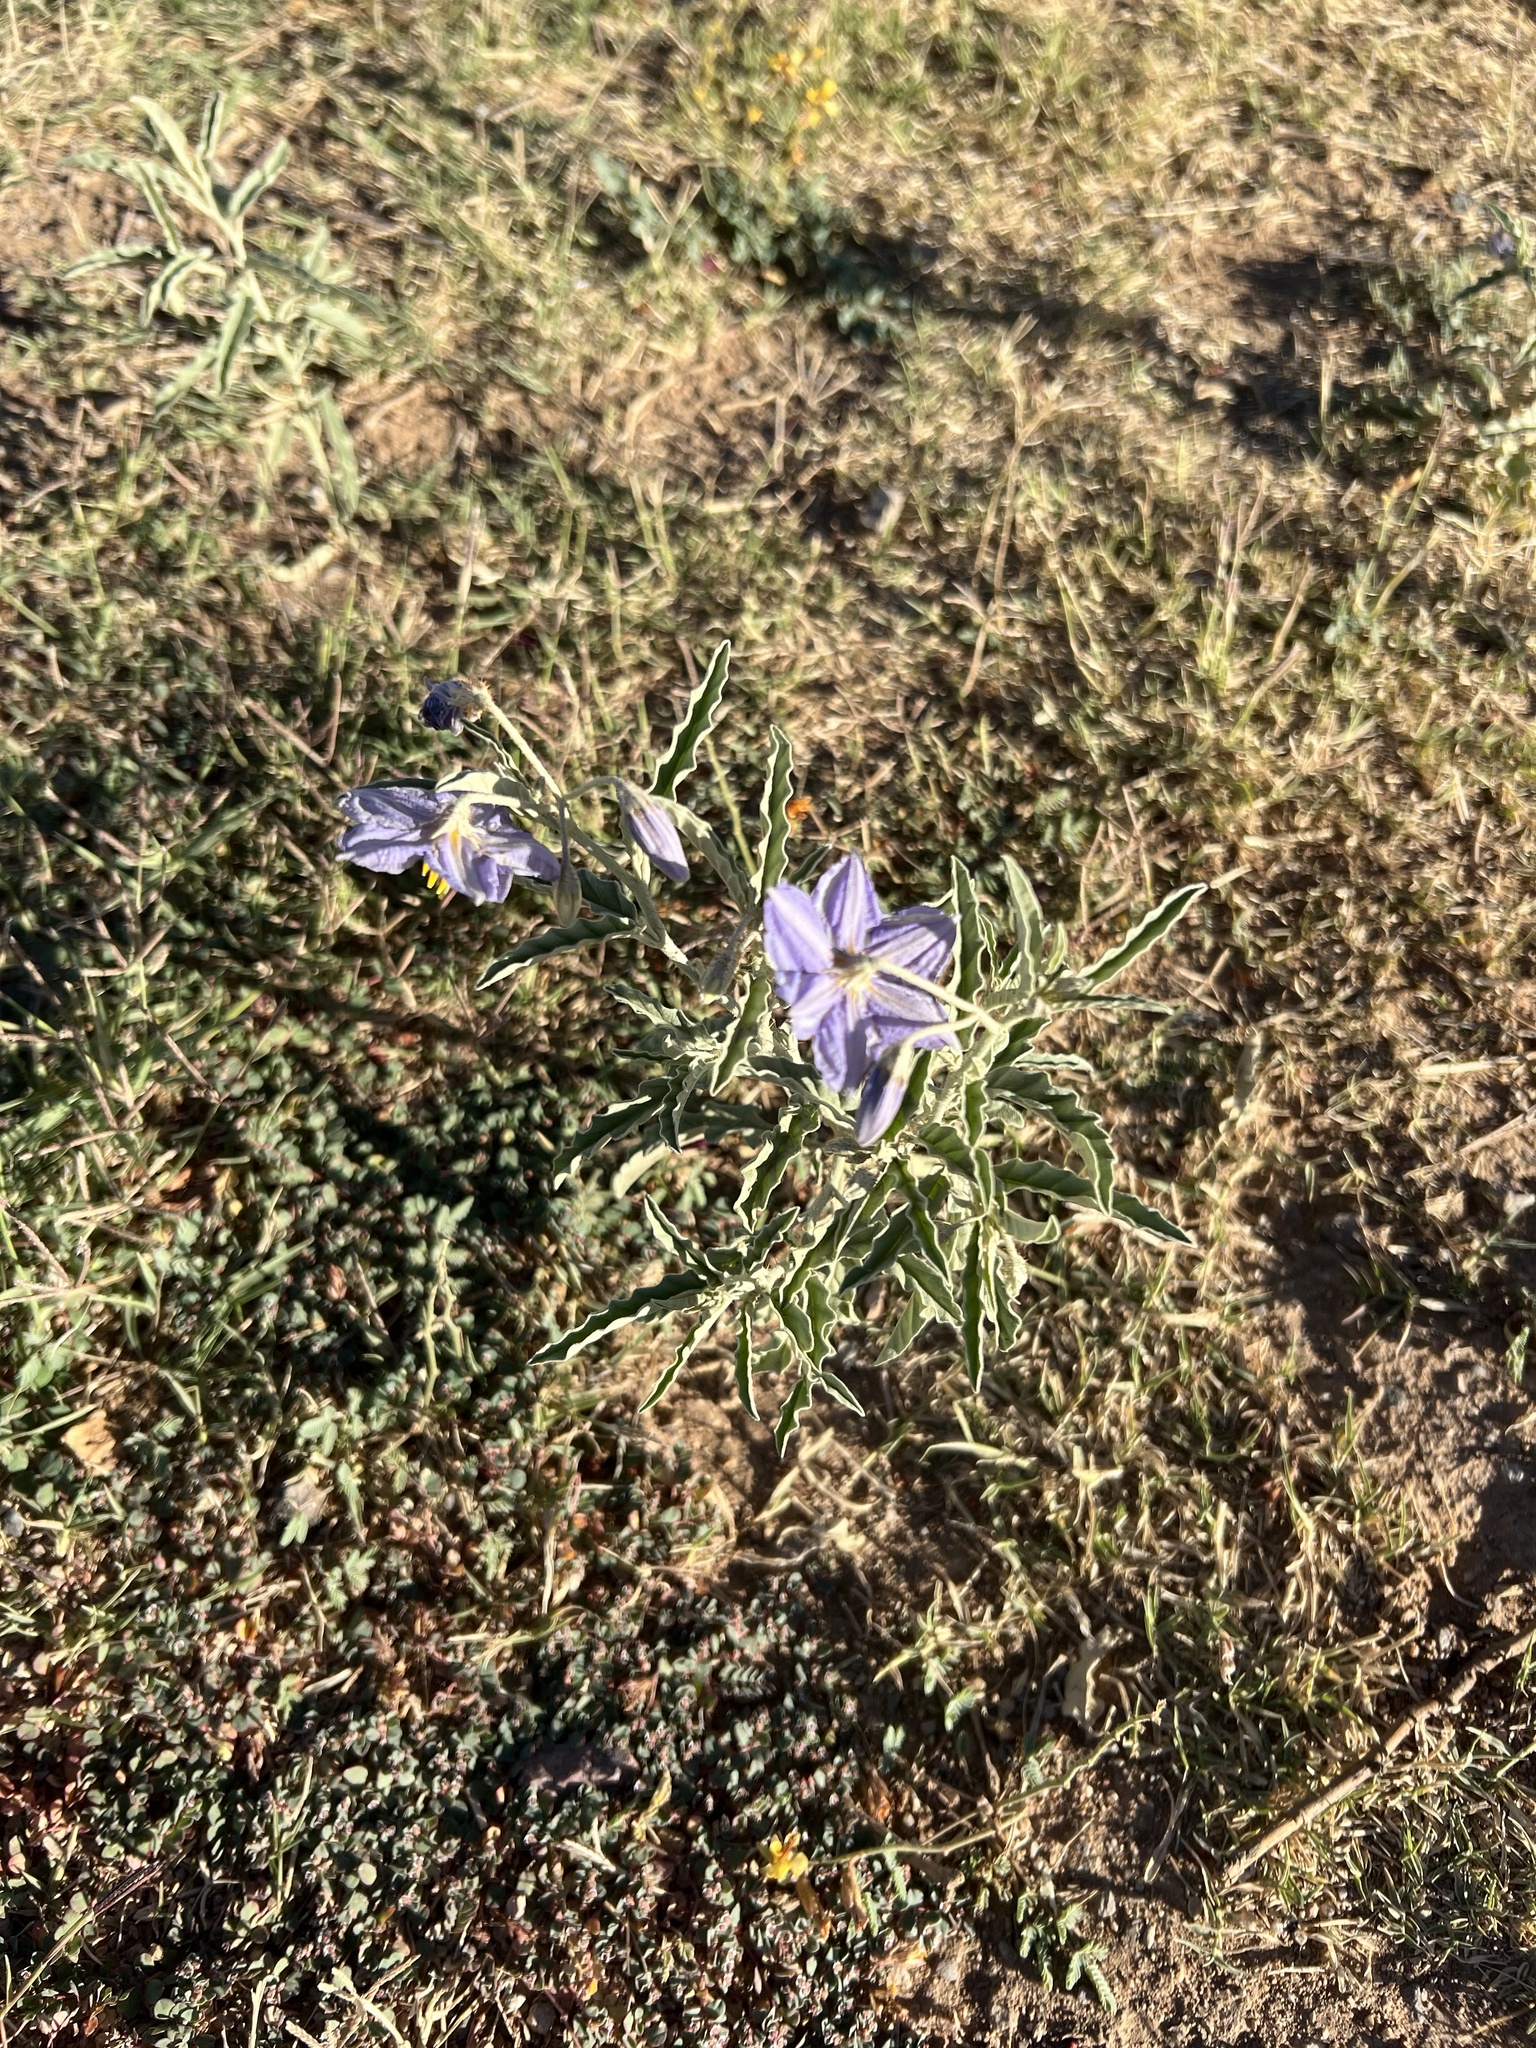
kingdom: Plantae
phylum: Tracheophyta
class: Magnoliopsida
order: Solanales
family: Solanaceae
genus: Solanum
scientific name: Solanum elaeagnifolium
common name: Silverleaf nightshade
